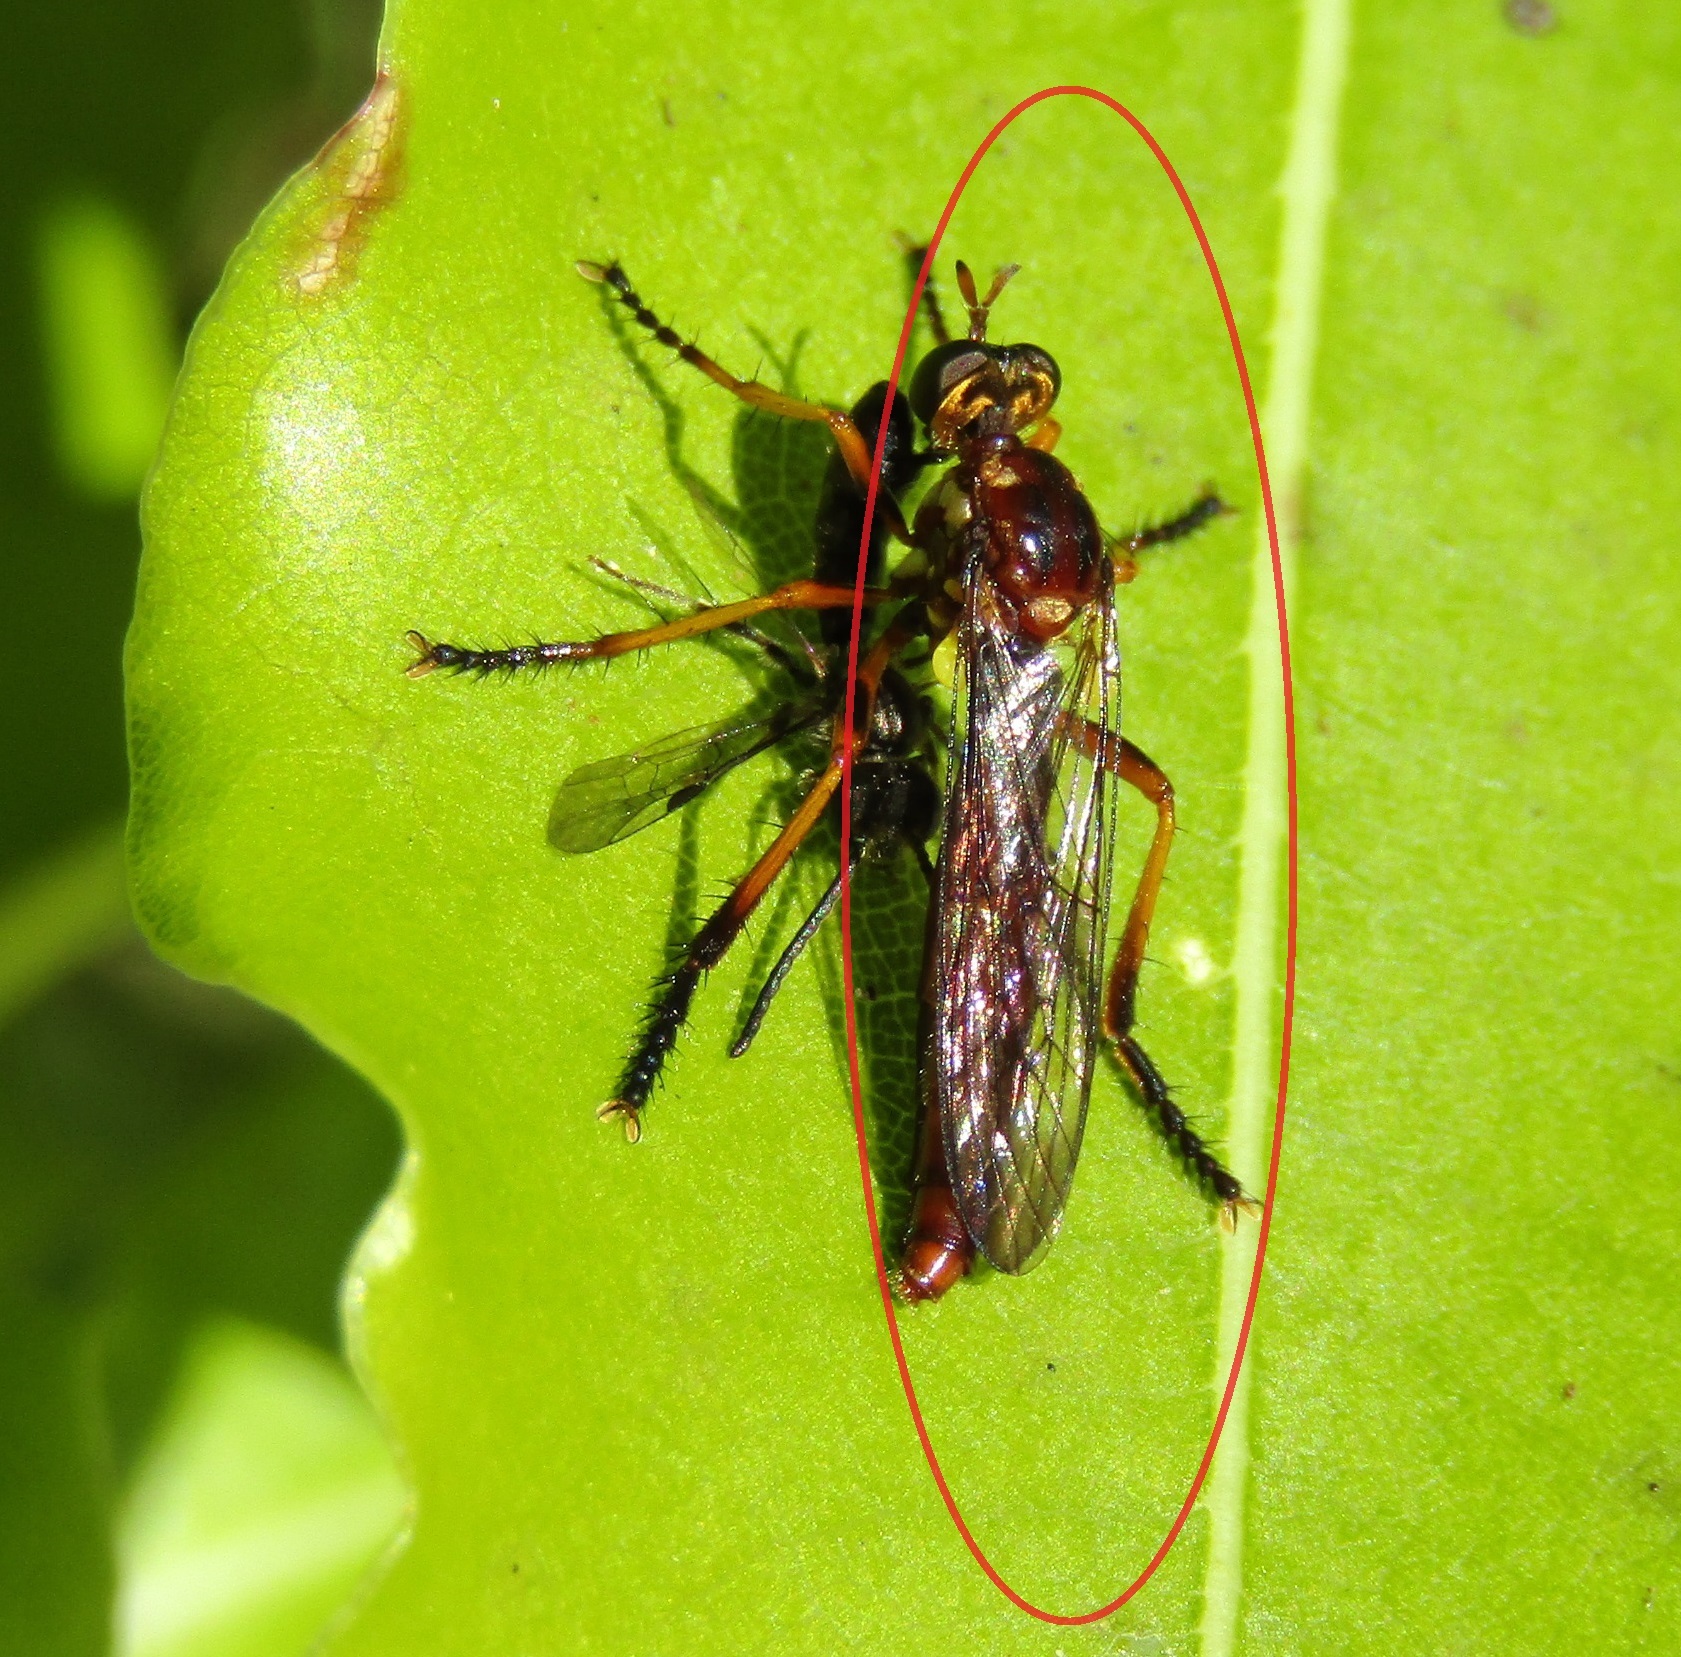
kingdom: Animalia
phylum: Arthropoda
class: Insecta
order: Diptera
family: Asilidae
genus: Saropogon
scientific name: Saropogon antipodus
